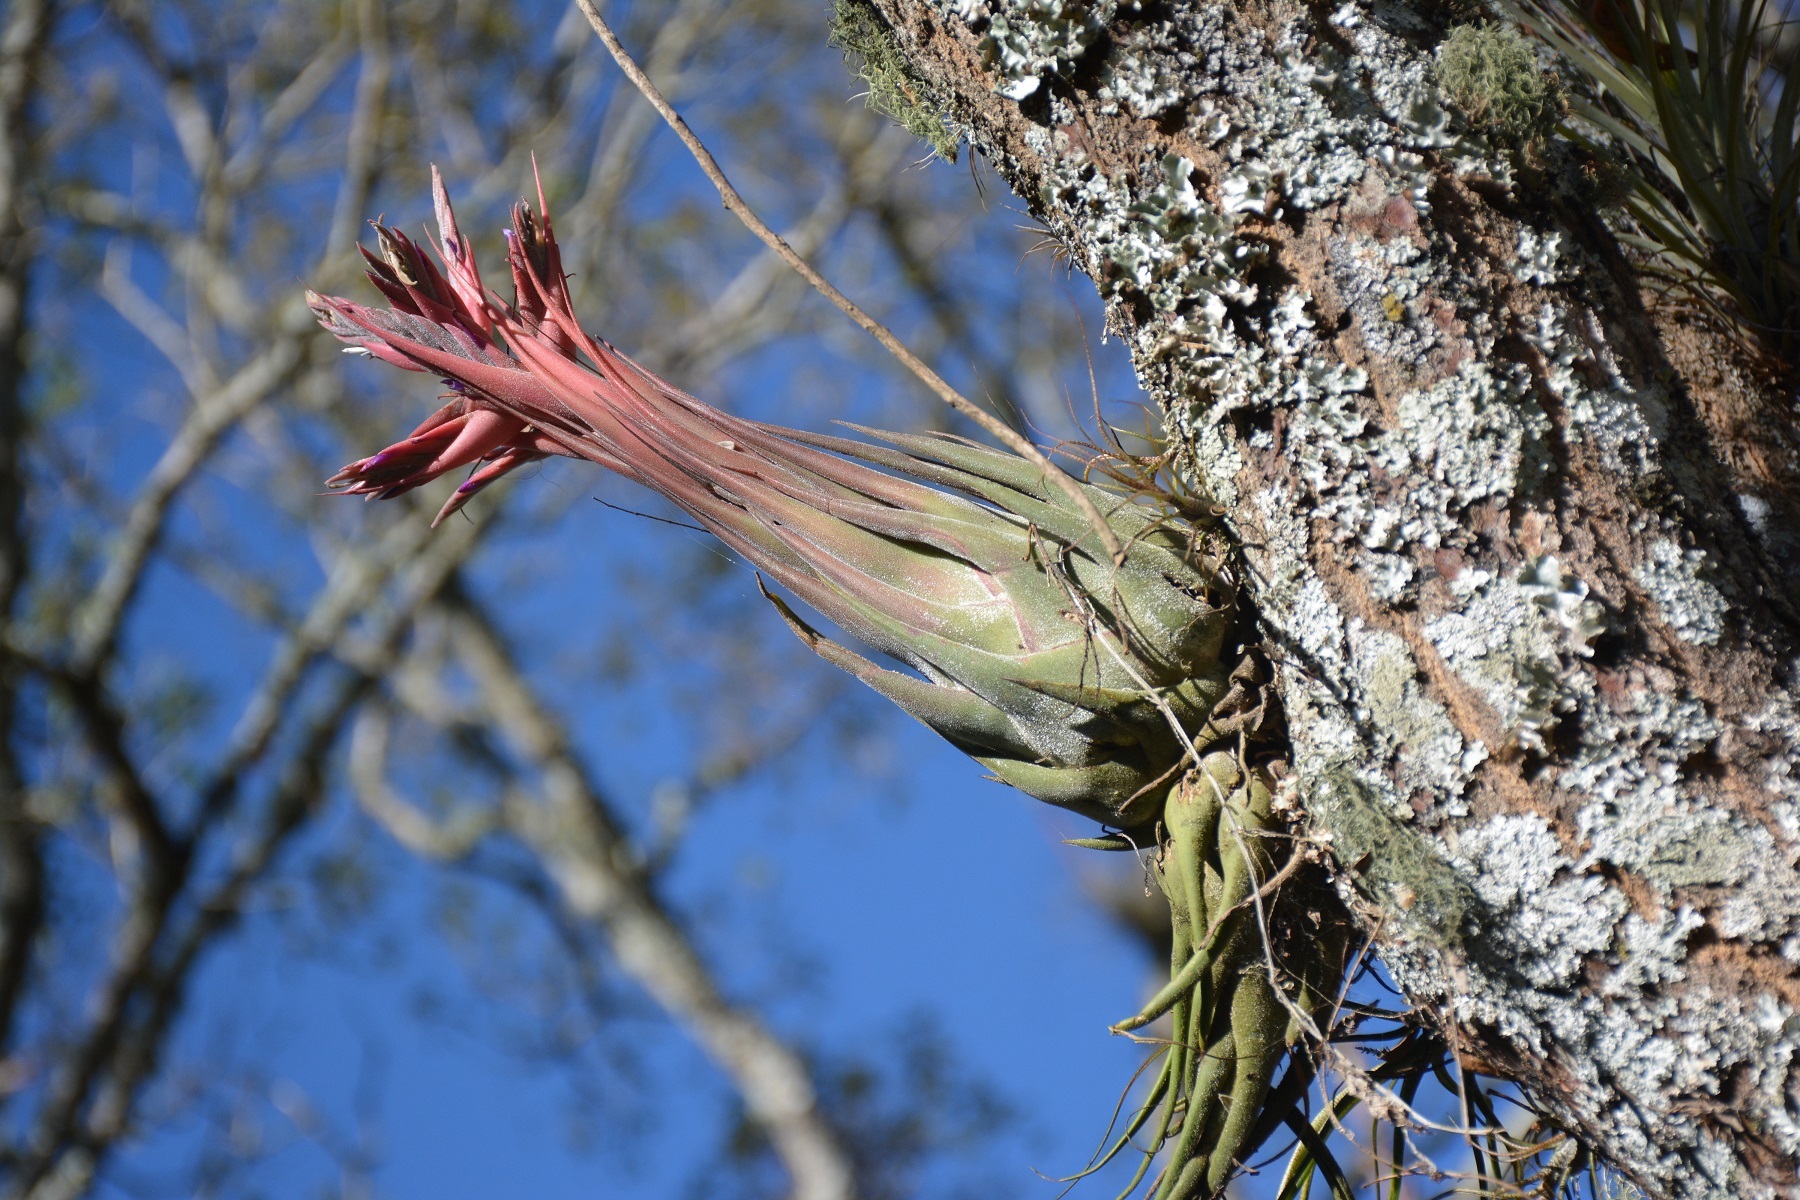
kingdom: Plantae
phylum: Tracheophyta
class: Liliopsida
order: Poales
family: Bromeliaceae
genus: Tillandsia
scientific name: Tillandsia seleriana
